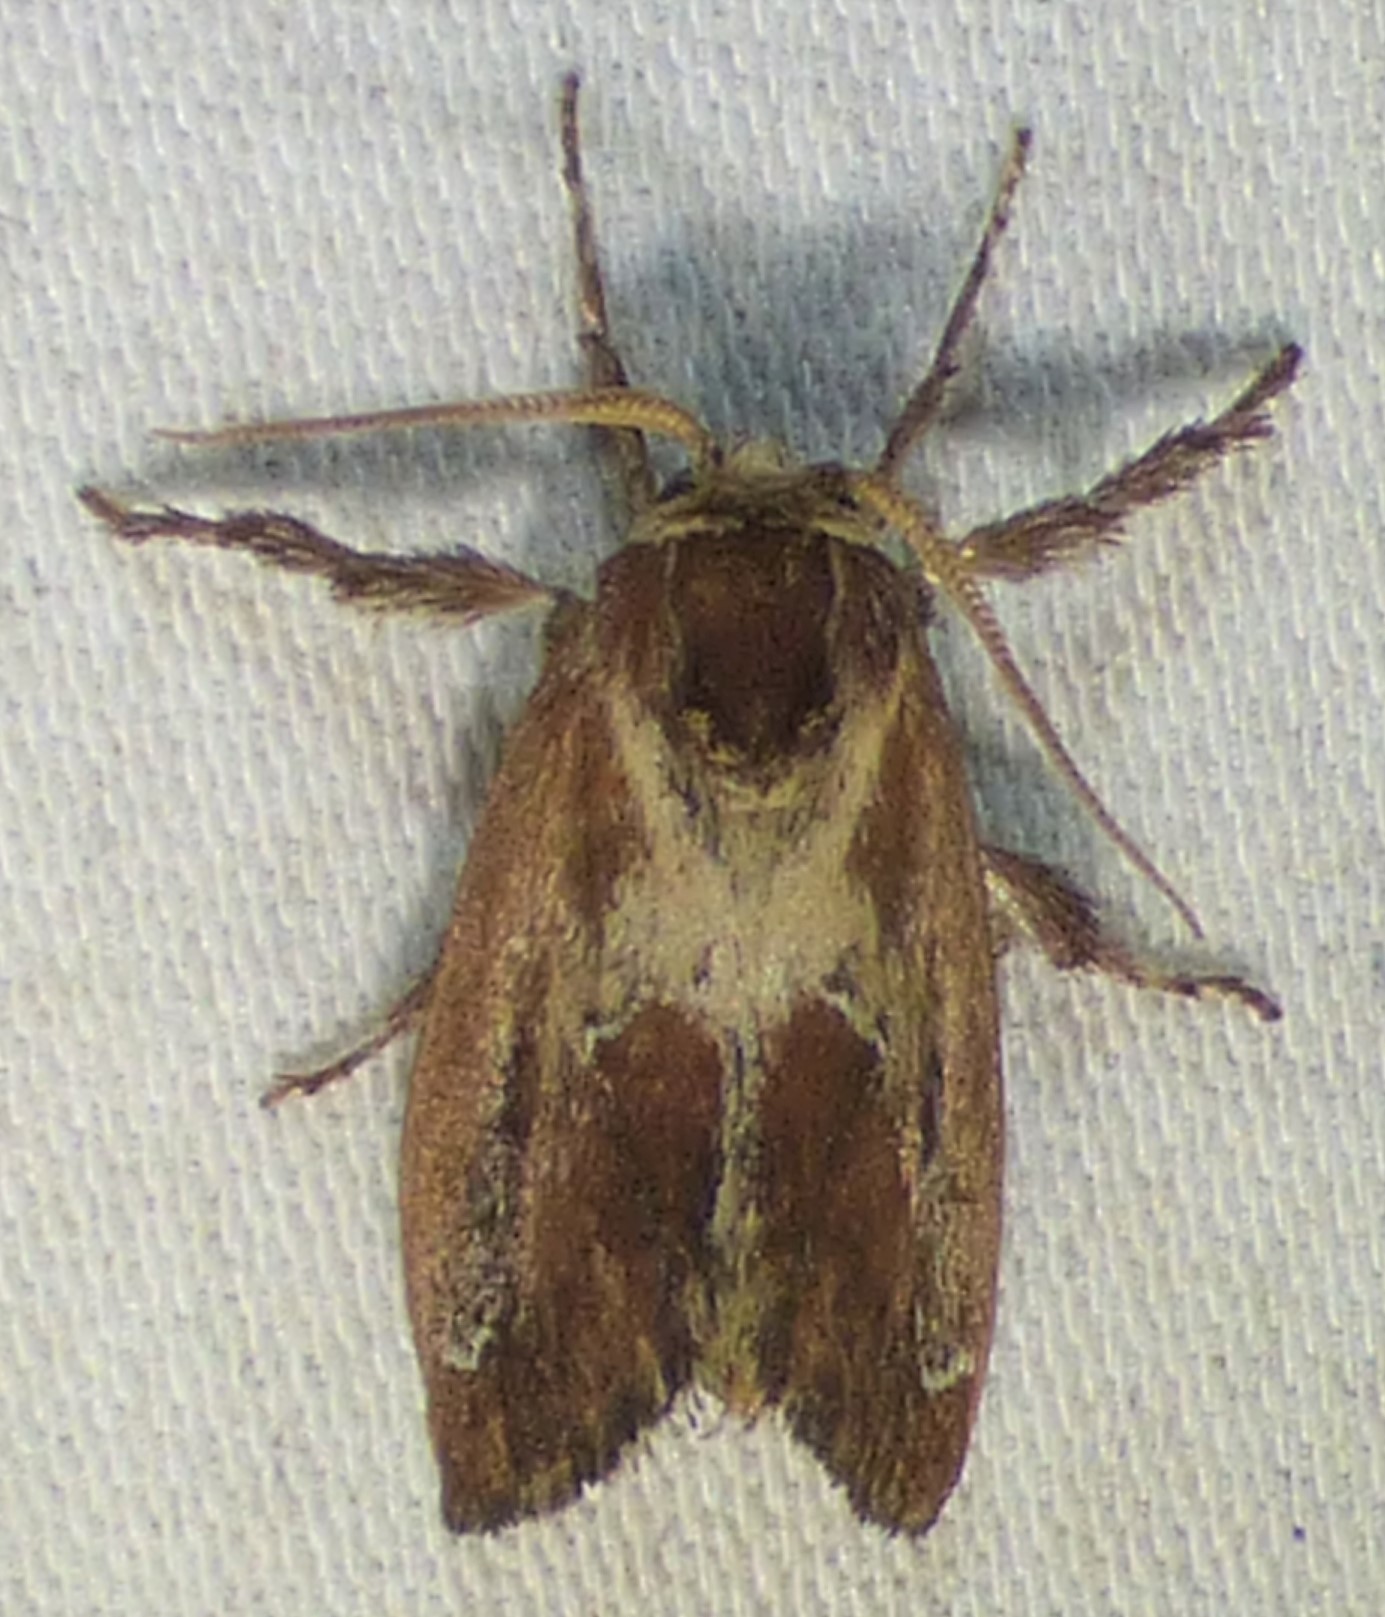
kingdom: Animalia
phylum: Arthropoda
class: Insecta
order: Lepidoptera
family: Limacodidae
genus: Adoneta
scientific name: Adoneta spinuloides
